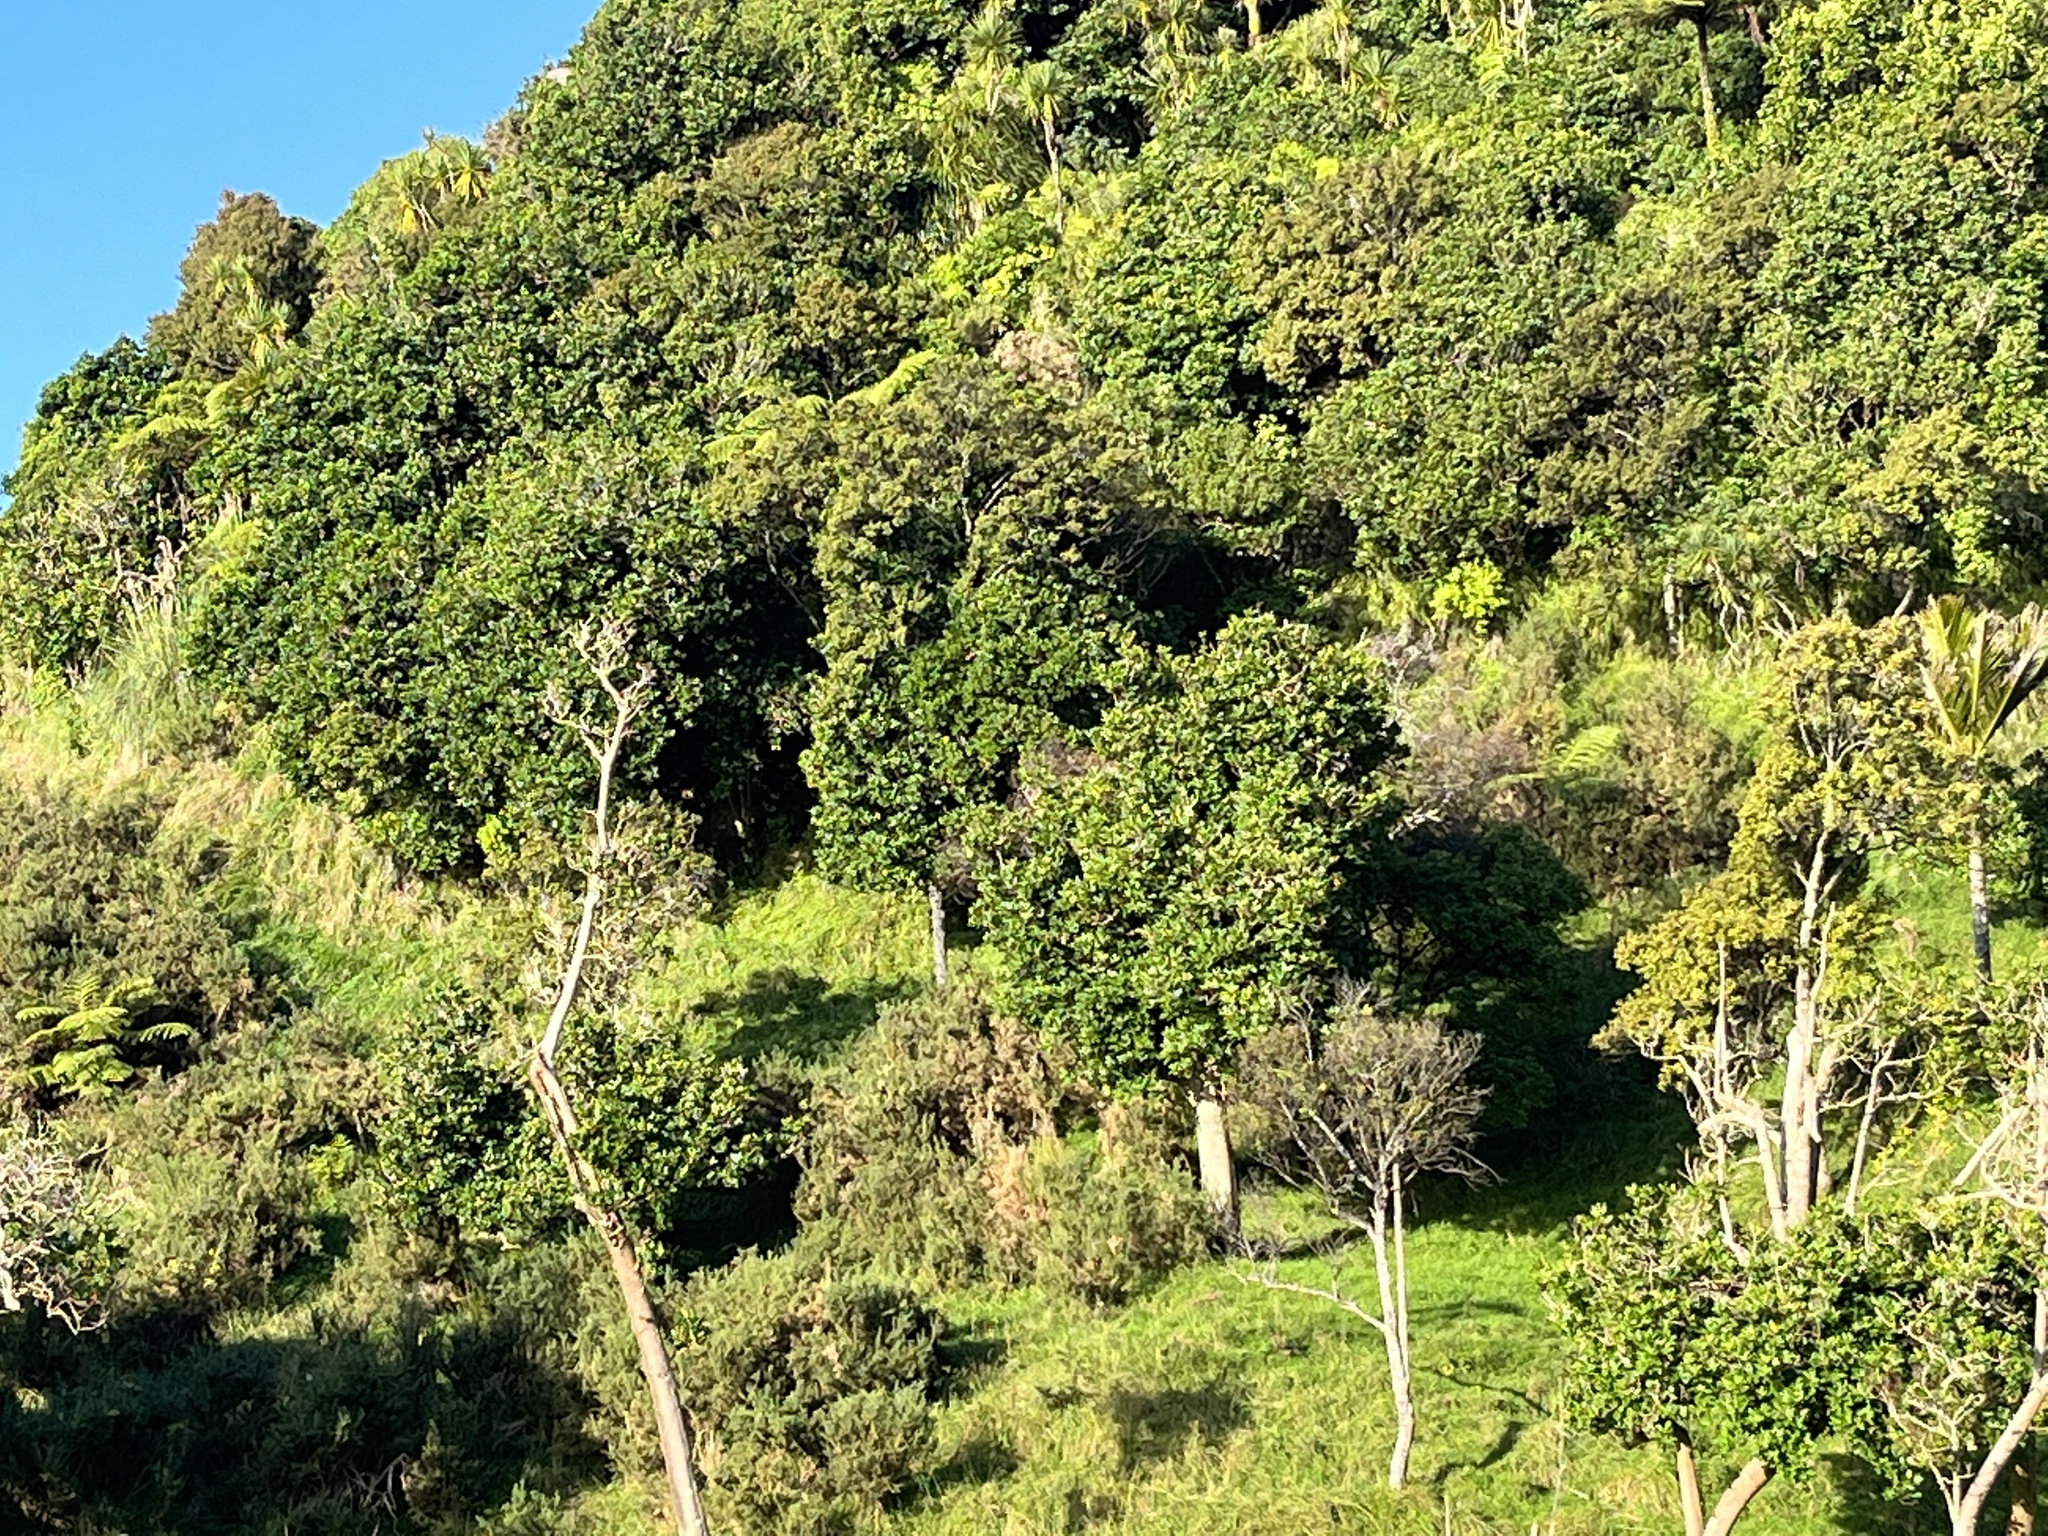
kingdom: Plantae
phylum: Tracheophyta
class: Magnoliopsida
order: Cucurbitales
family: Corynocarpaceae
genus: Corynocarpus
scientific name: Corynocarpus laevigatus
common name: New zealand laurel
